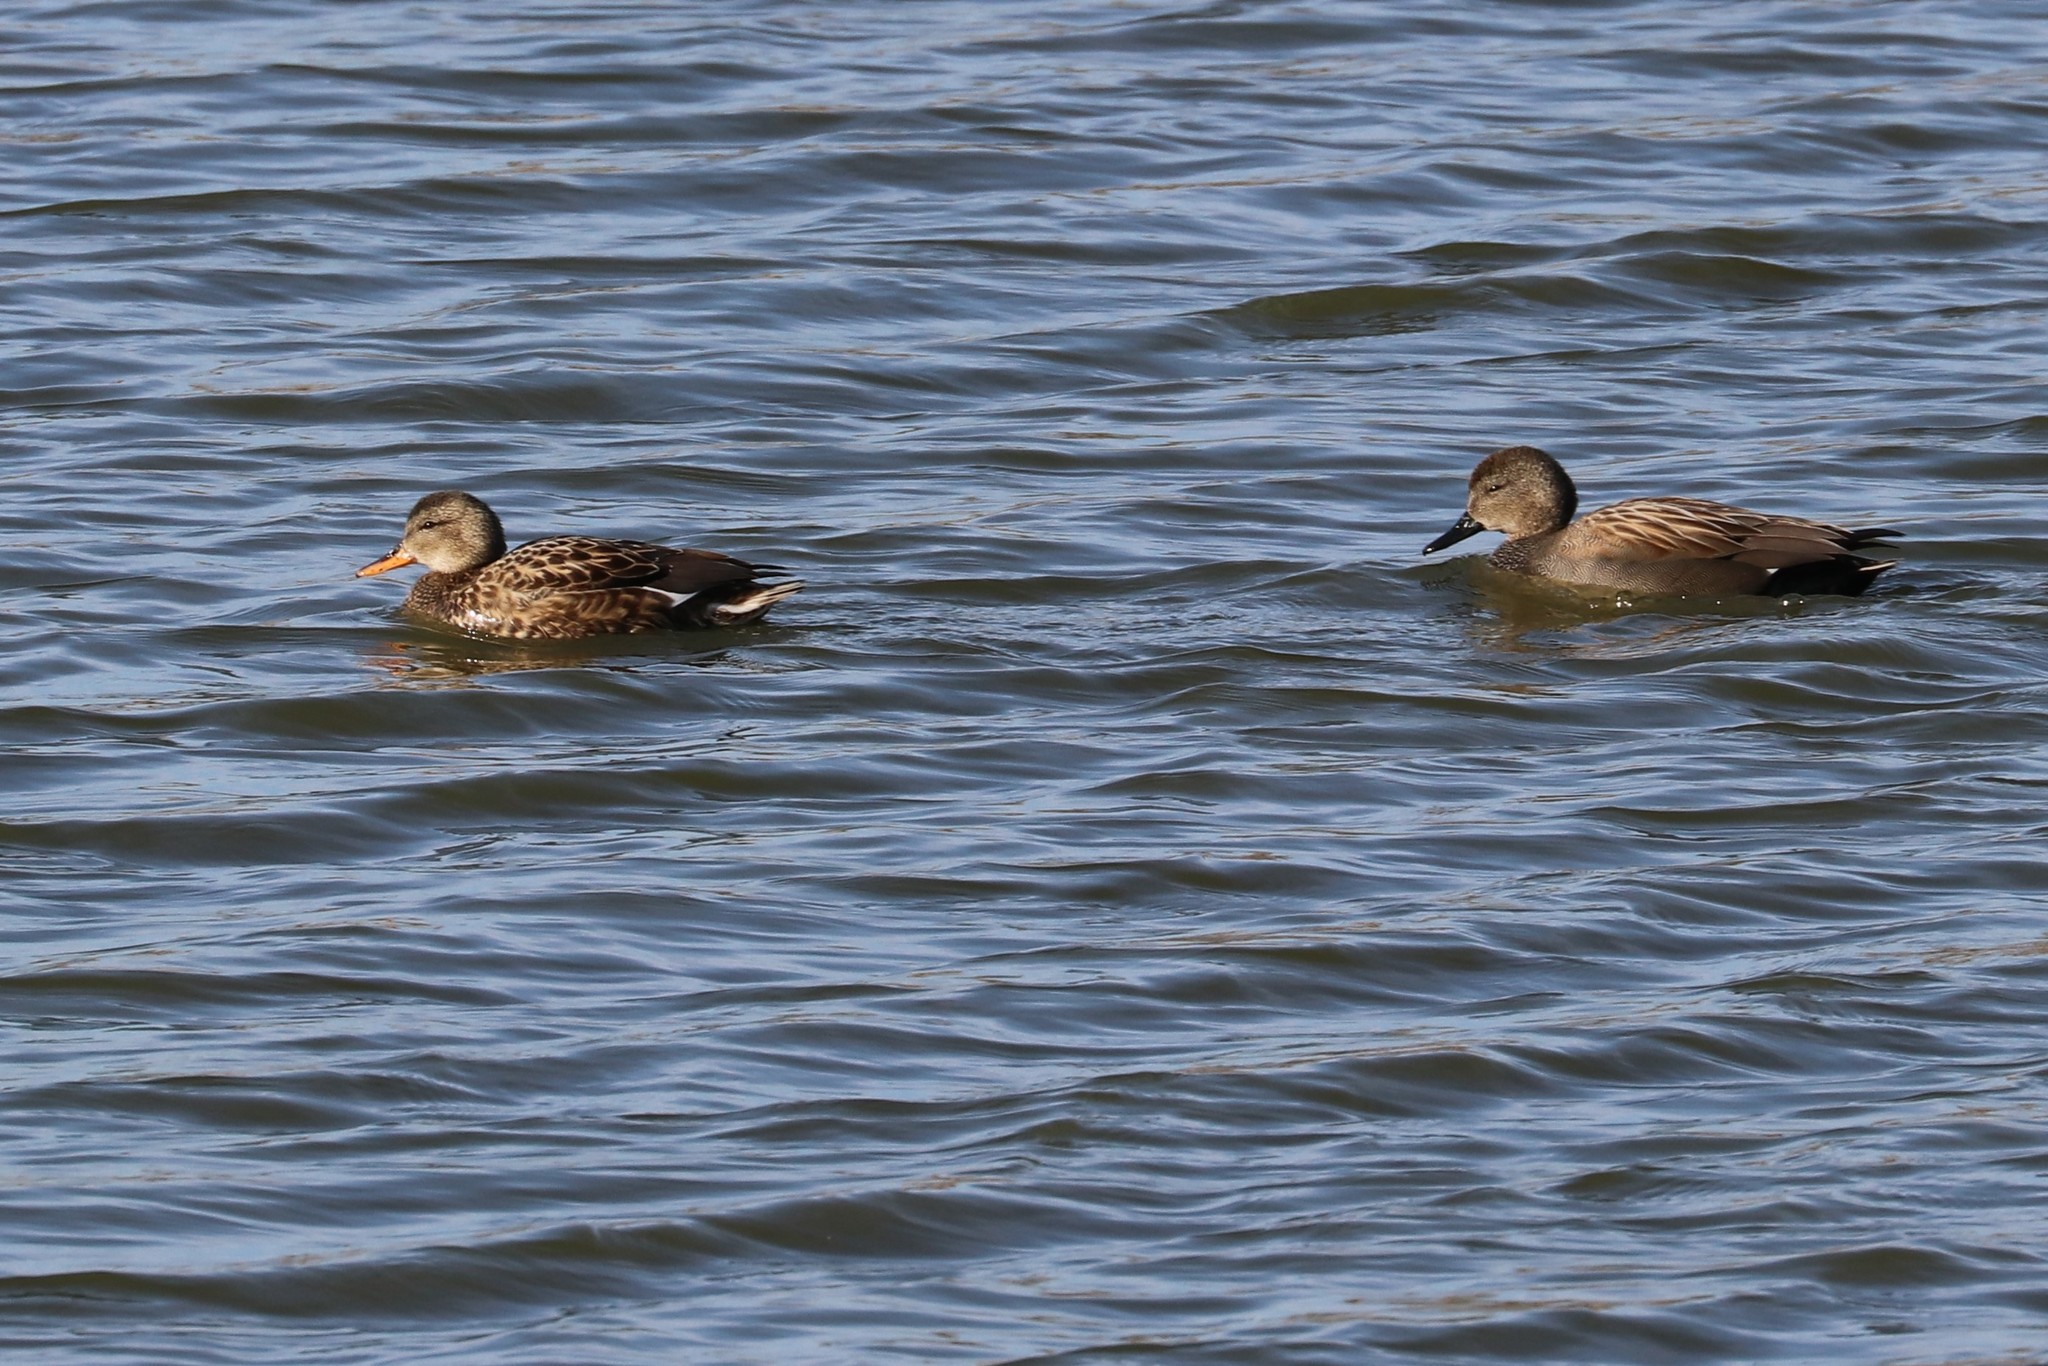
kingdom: Animalia
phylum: Chordata
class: Aves
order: Anseriformes
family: Anatidae
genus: Mareca
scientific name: Mareca strepera
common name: Gadwall
